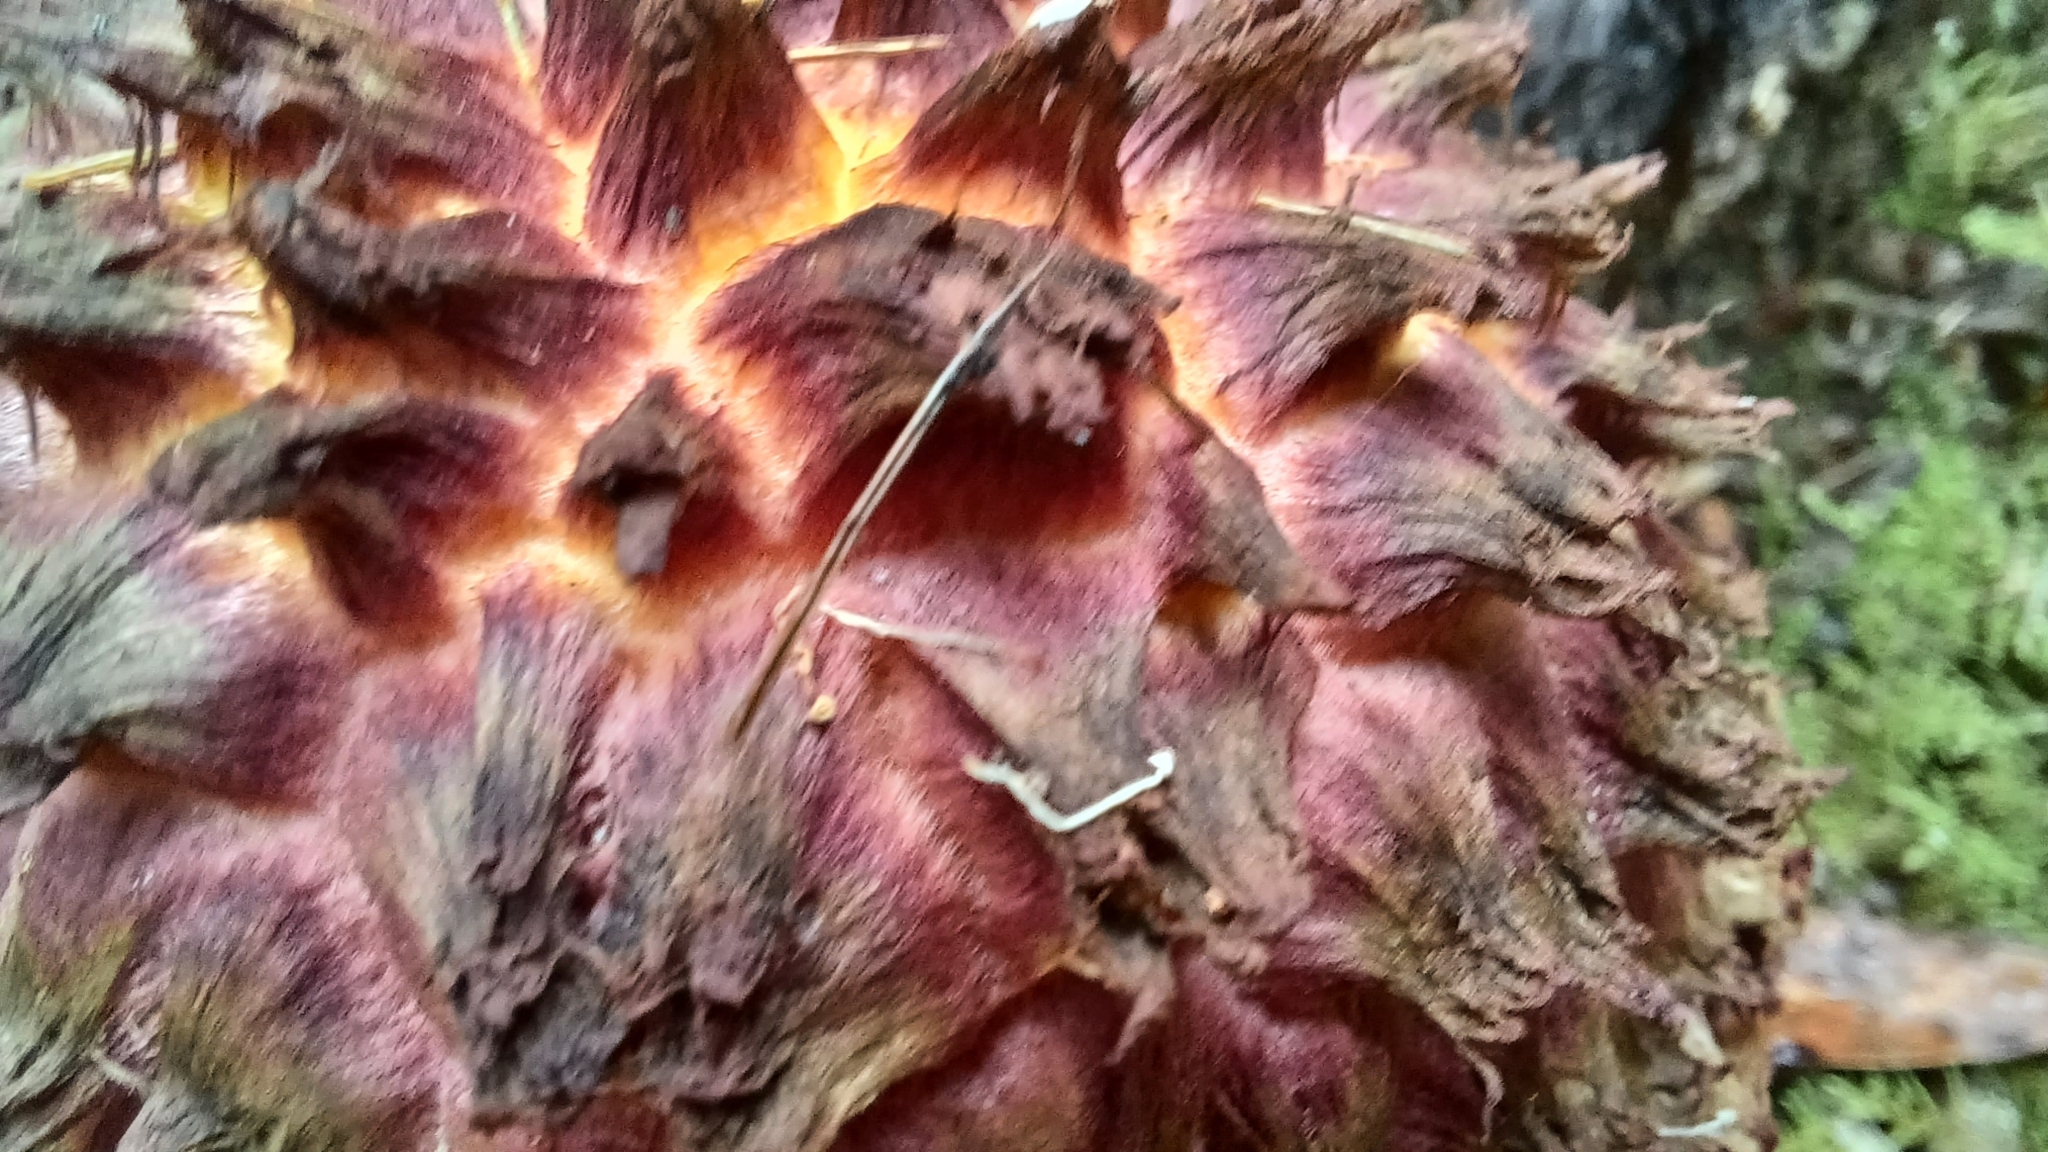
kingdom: Fungi
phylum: Basidiomycota
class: Agaricomycetes
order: Boletales
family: Boletaceae
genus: Boletellus
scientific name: Boletellus emodensis
